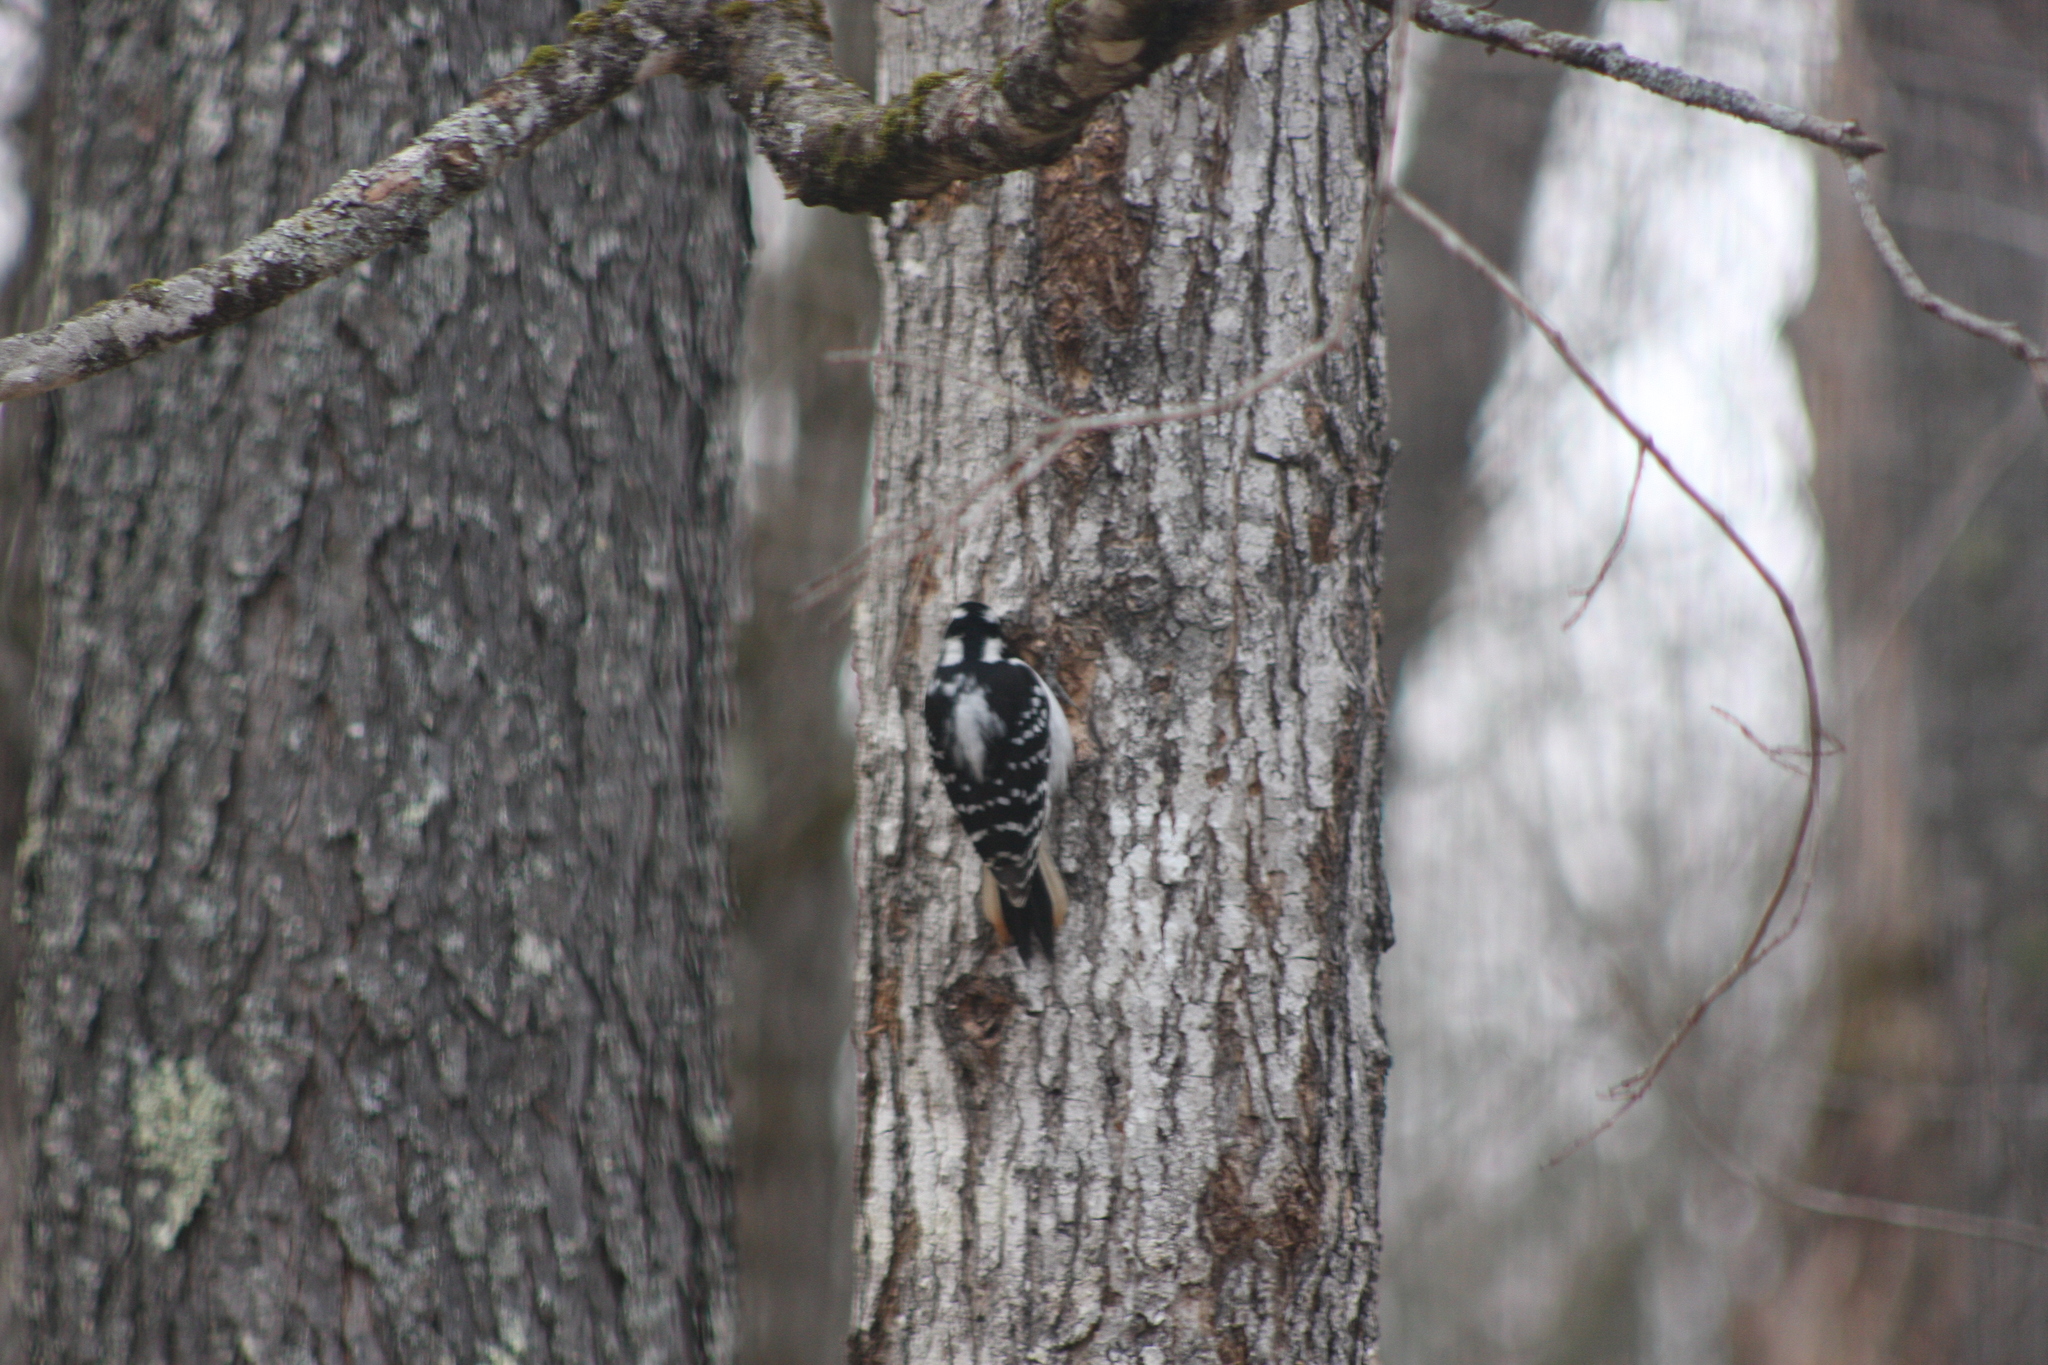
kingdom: Animalia
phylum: Chordata
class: Aves
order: Piciformes
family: Picidae
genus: Leuconotopicus
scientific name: Leuconotopicus villosus
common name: Hairy woodpecker
